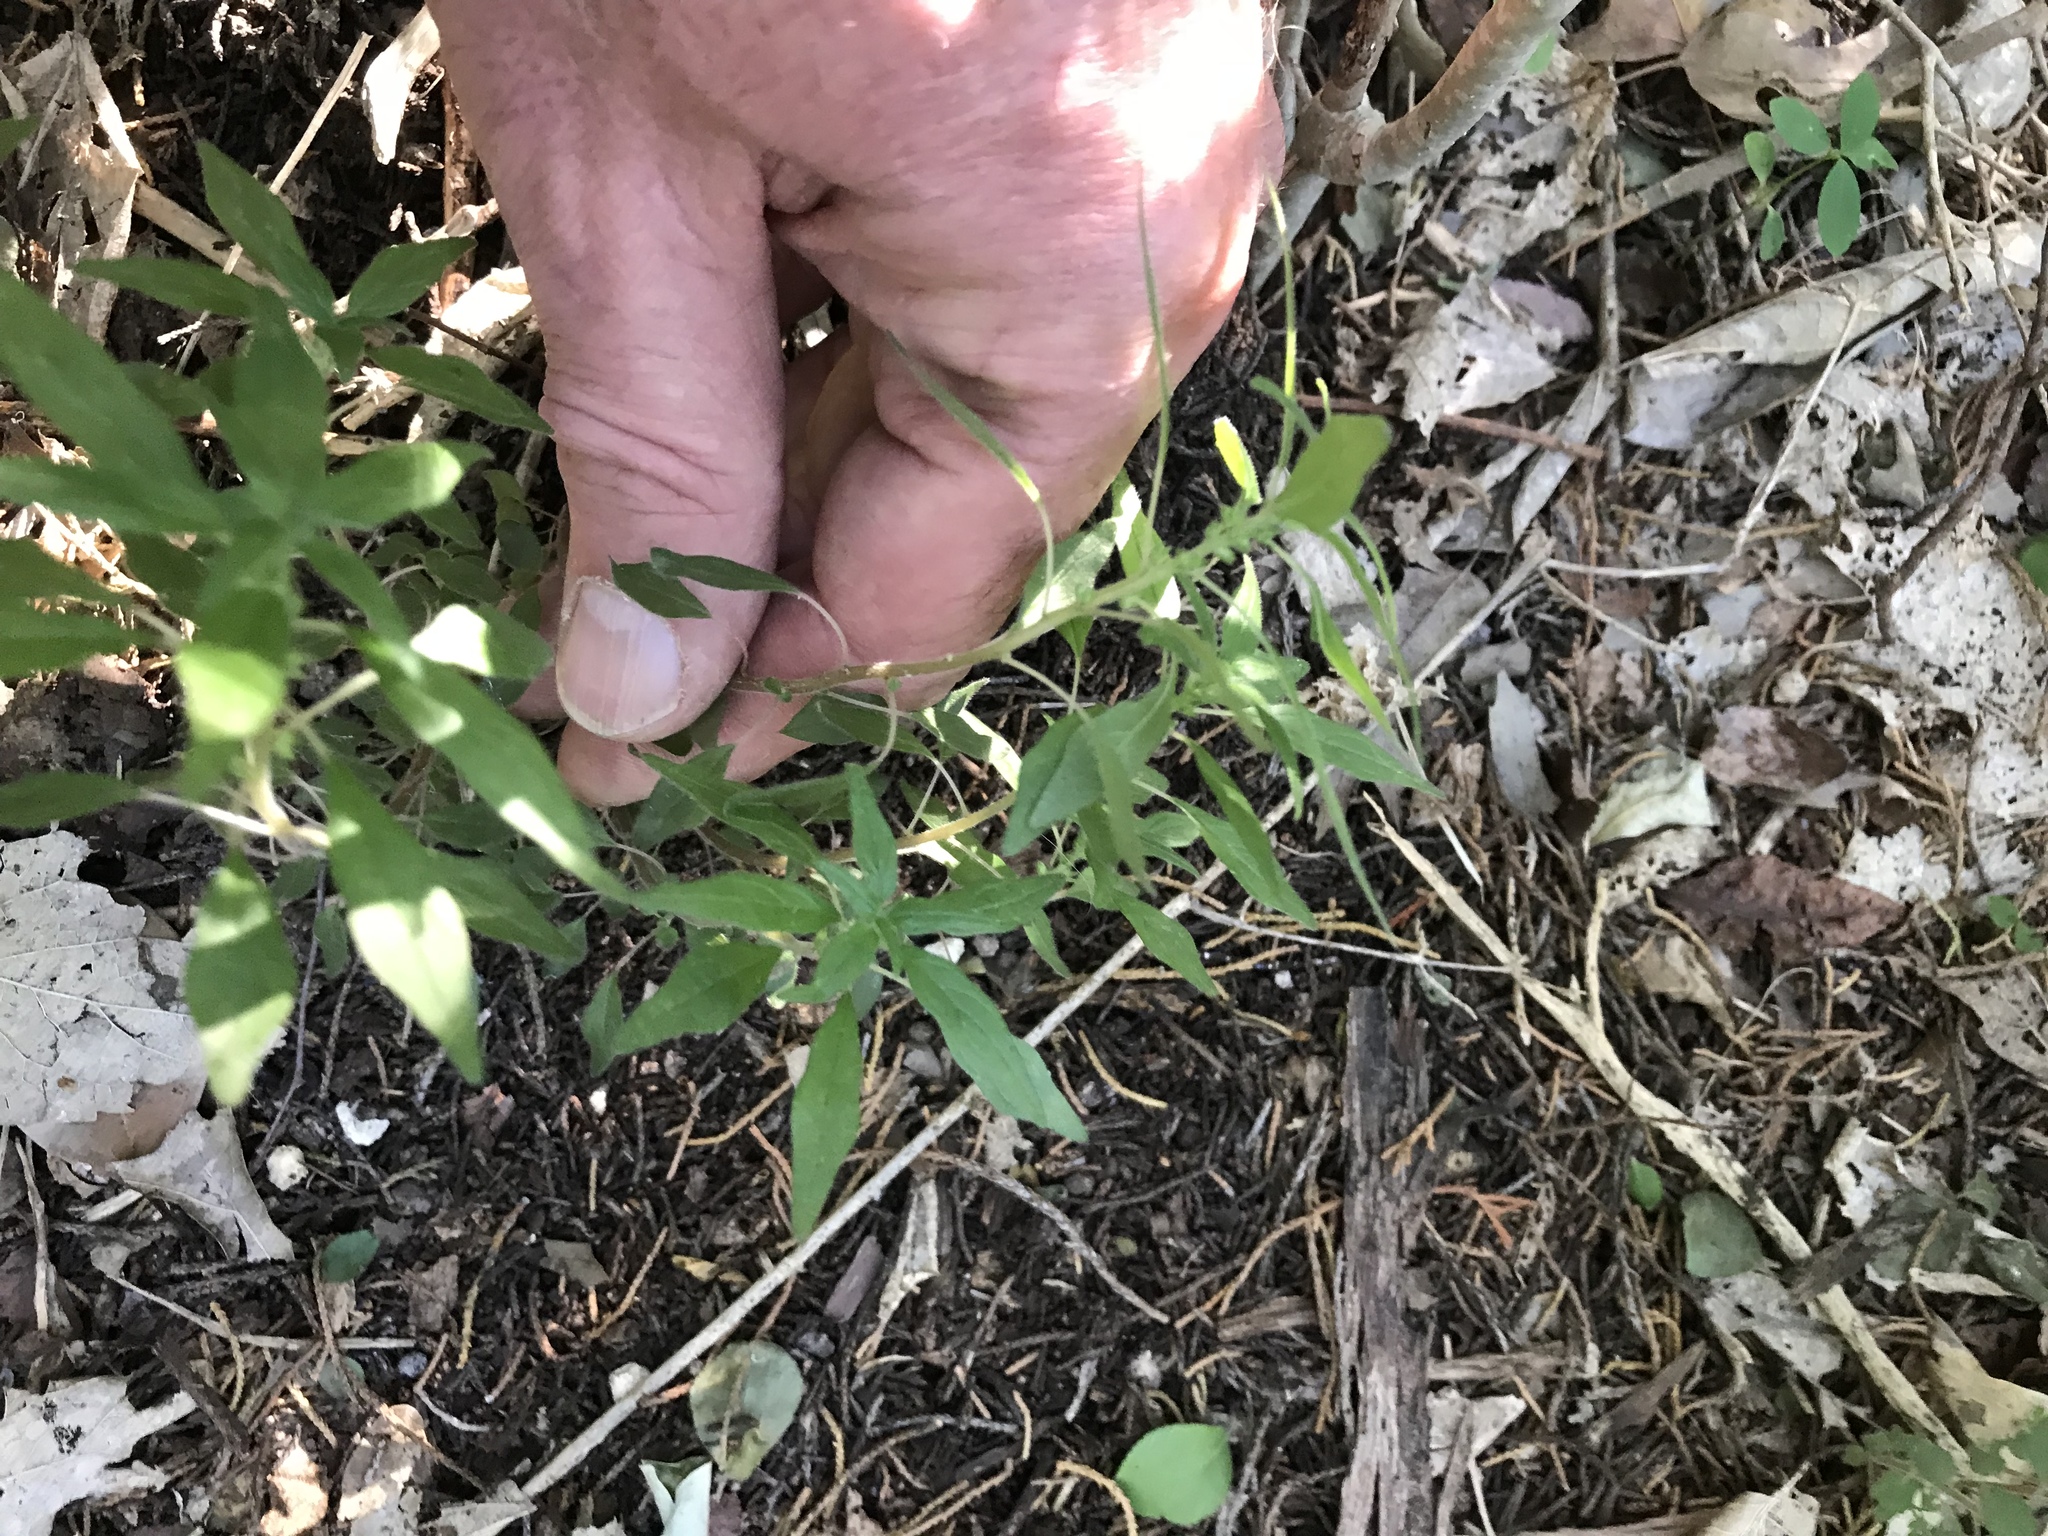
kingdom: Plantae
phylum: Tracheophyta
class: Magnoliopsida
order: Rosales
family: Urticaceae
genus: Parietaria
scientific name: Parietaria pensylvanica
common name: Pennsylvania pellitory
